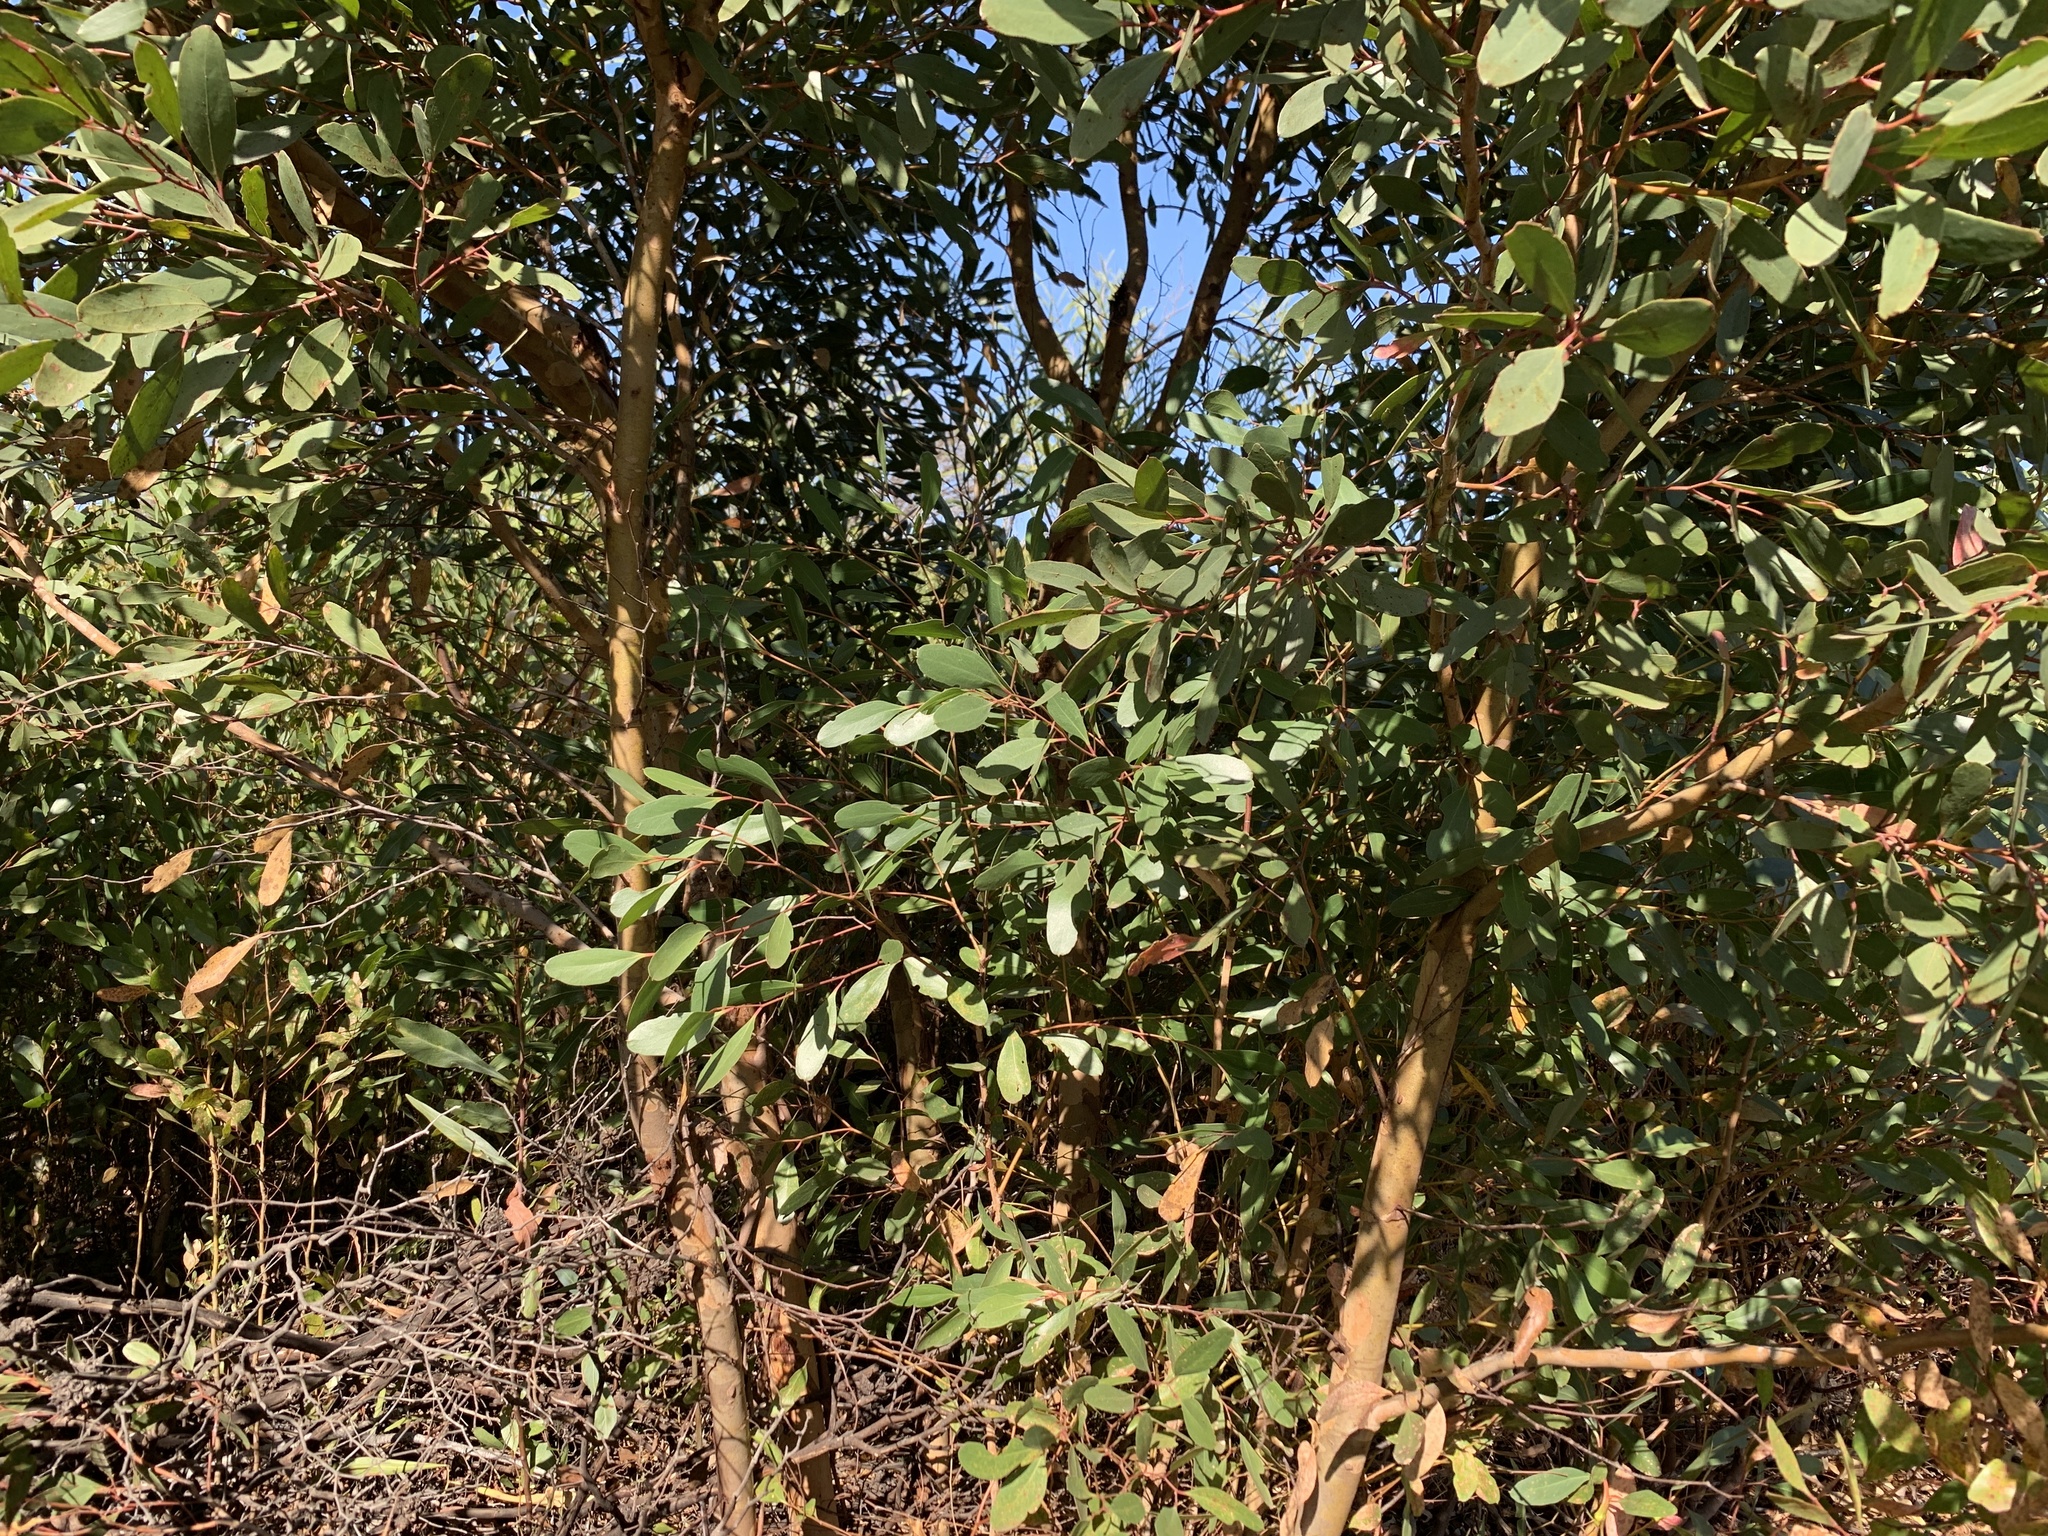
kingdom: Plantae
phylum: Tracheophyta
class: Magnoliopsida
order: Myrtales
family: Myrtaceae
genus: Eucalyptus
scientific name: Eucalyptus conferruminata
